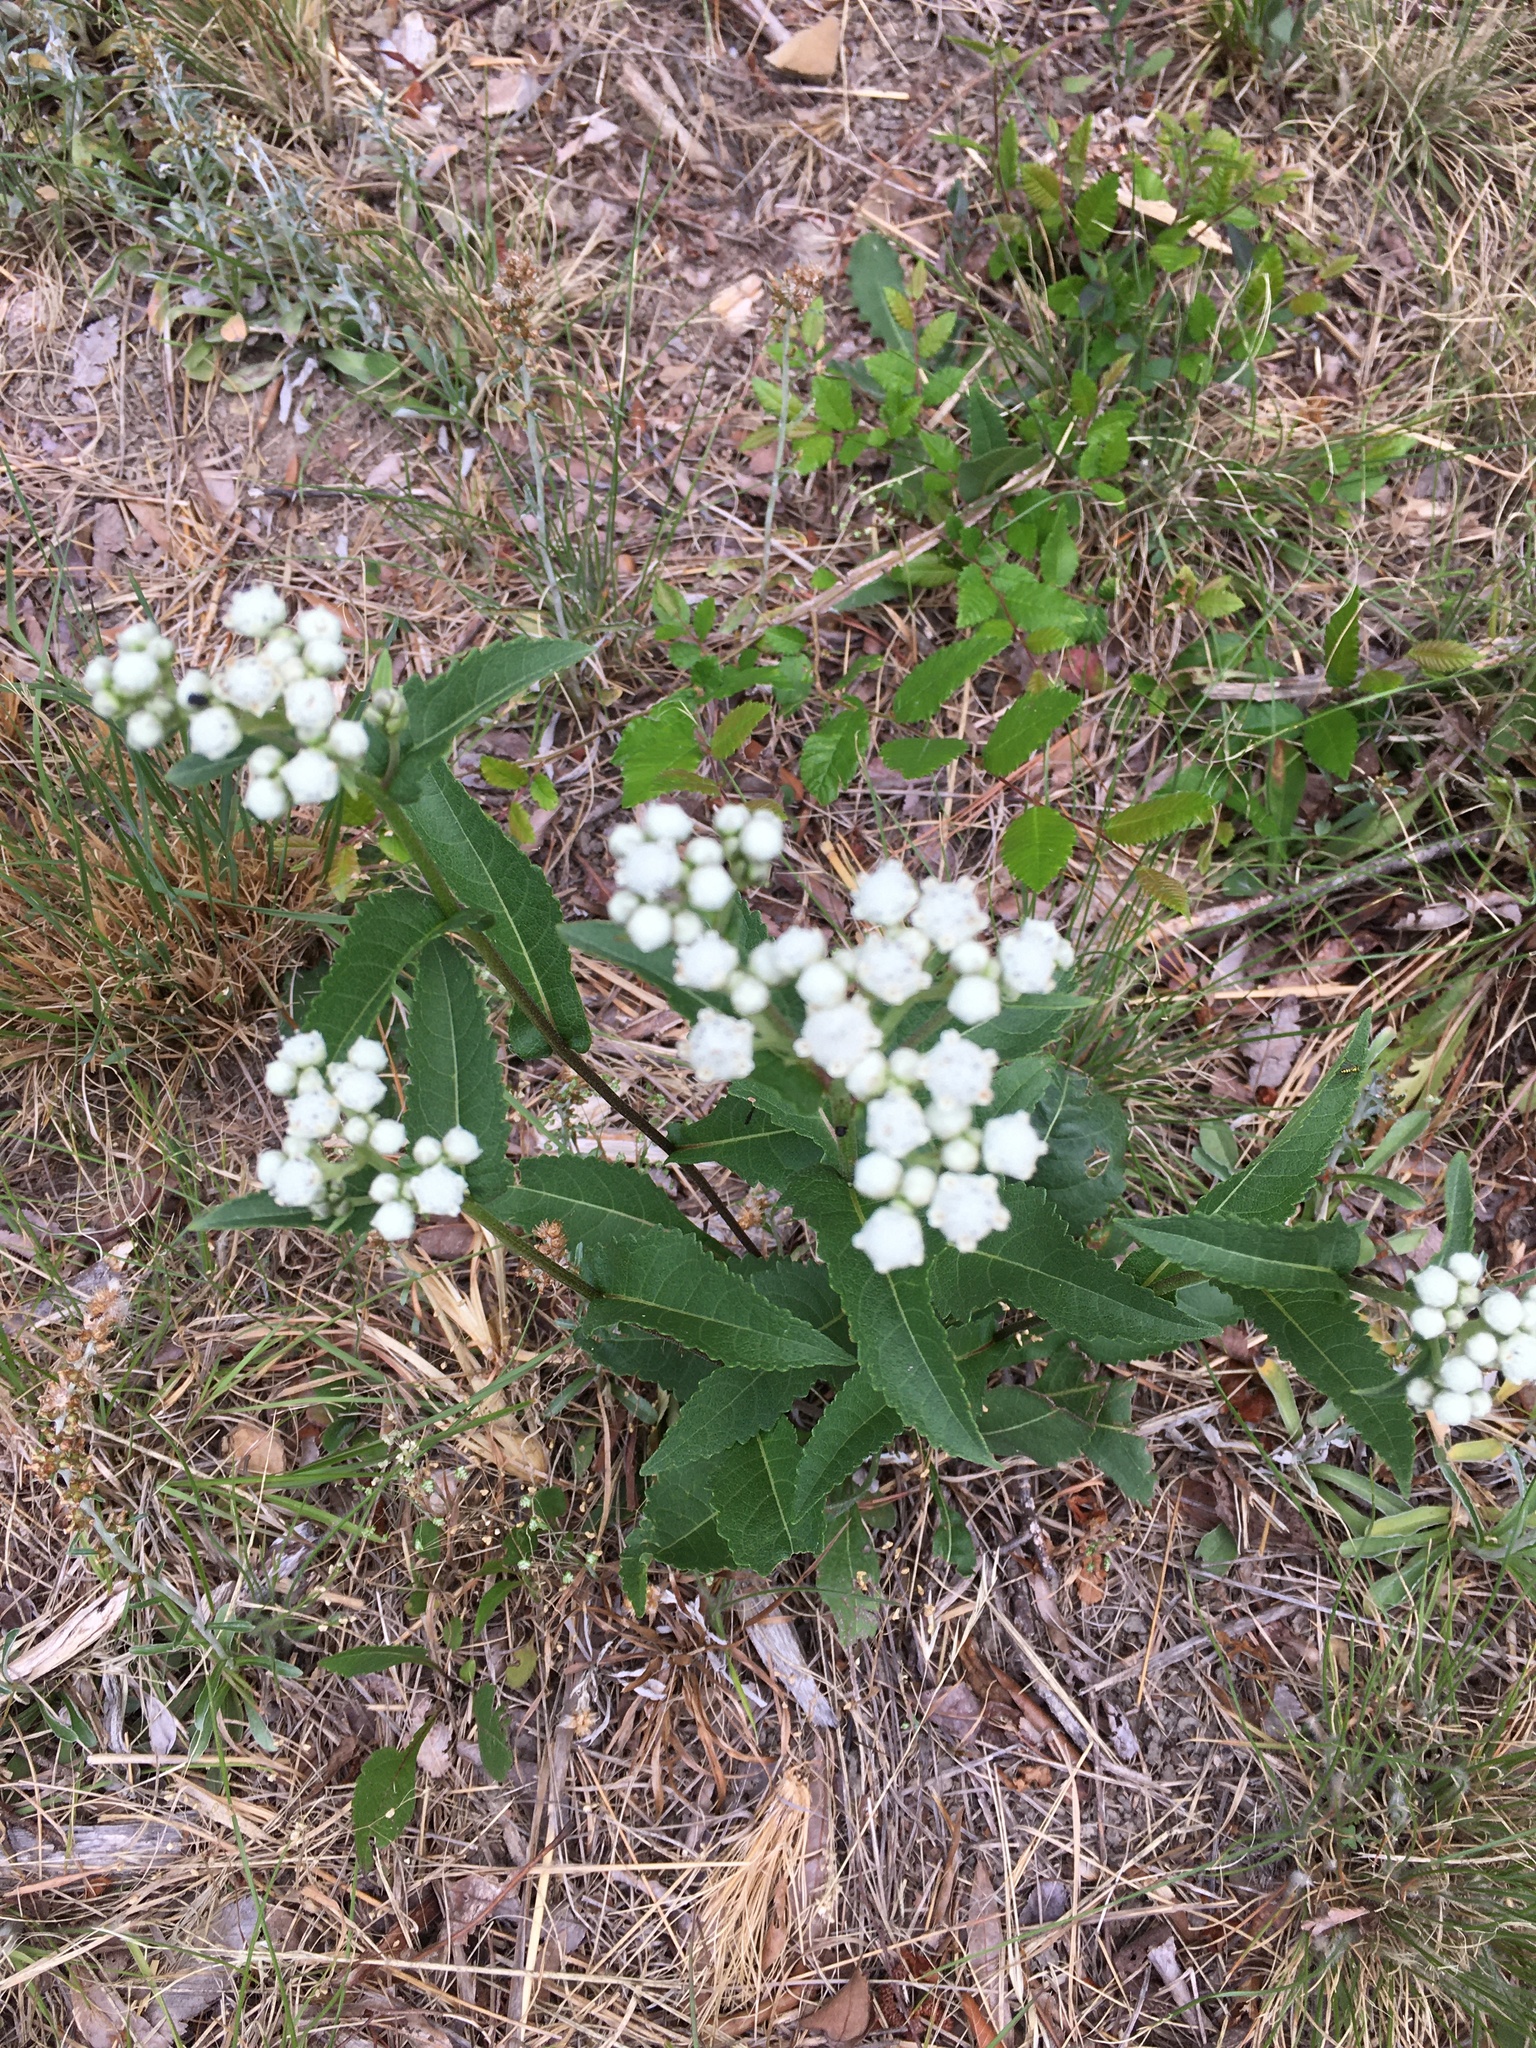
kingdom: Plantae
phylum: Tracheophyta
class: Magnoliopsida
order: Asterales
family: Asteraceae
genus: Parthenium
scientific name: Parthenium integrifolium
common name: American feverfew
